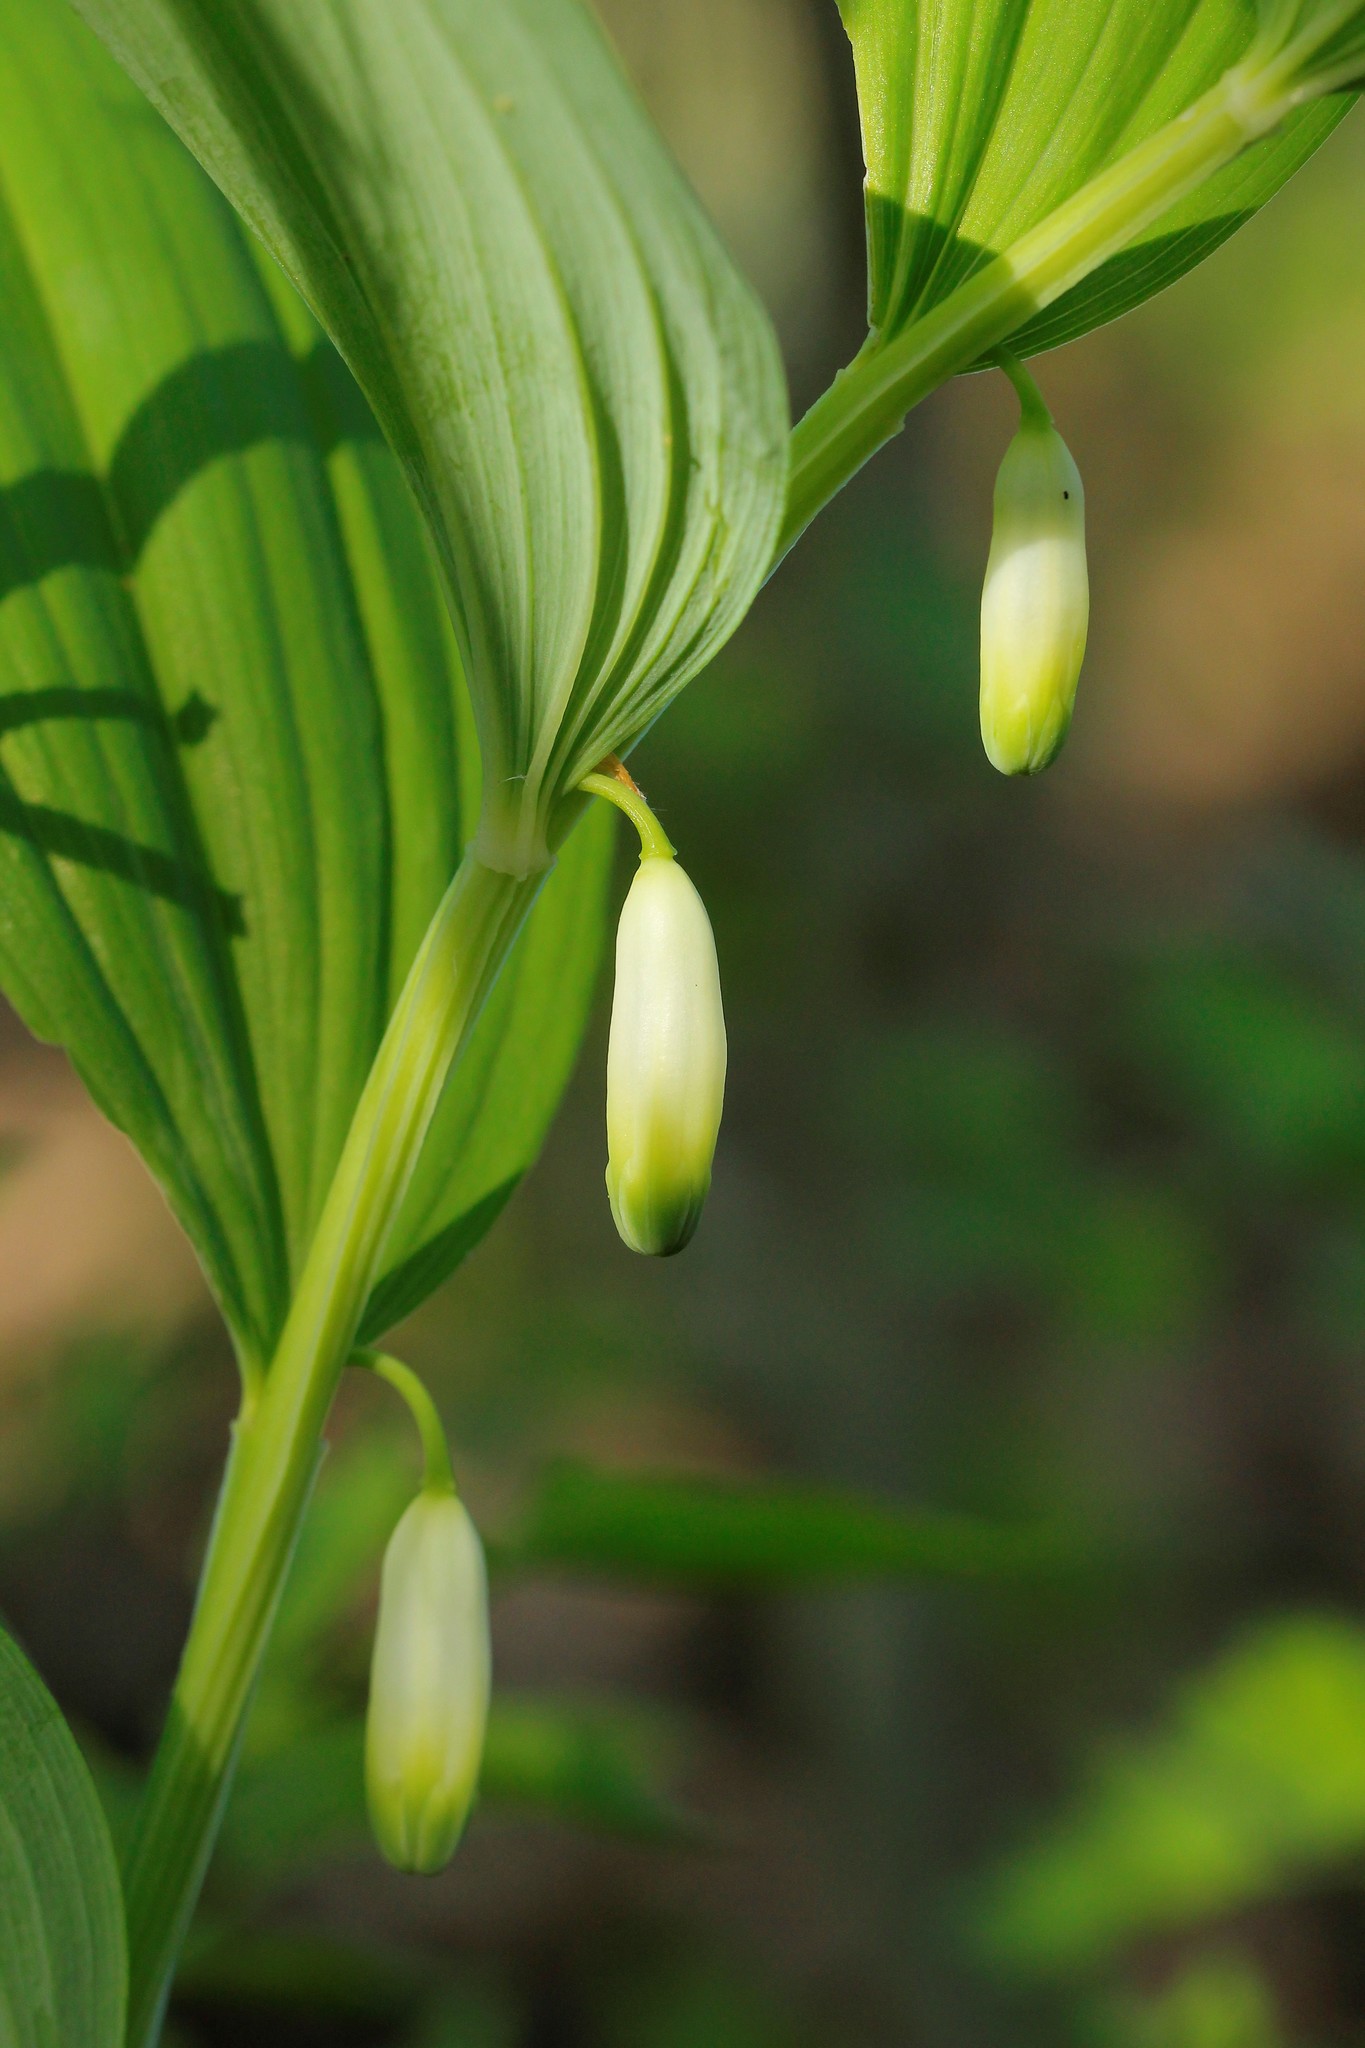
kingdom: Plantae
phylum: Tracheophyta
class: Liliopsida
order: Asparagales
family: Asparagaceae
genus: Polygonatum
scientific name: Polygonatum odoratum
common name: Angular solomon's-seal
